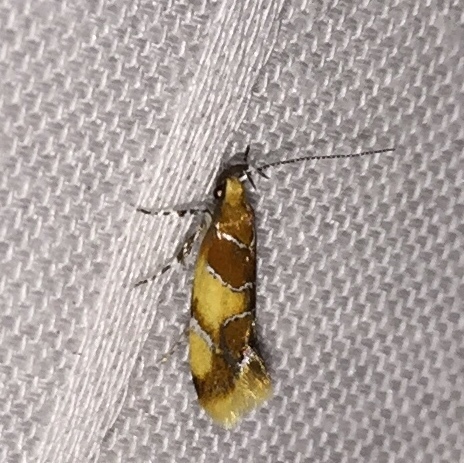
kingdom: Animalia
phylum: Arthropoda
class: Insecta
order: Lepidoptera
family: Oecophoridae
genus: Callima
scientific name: Callima argenticinctella
